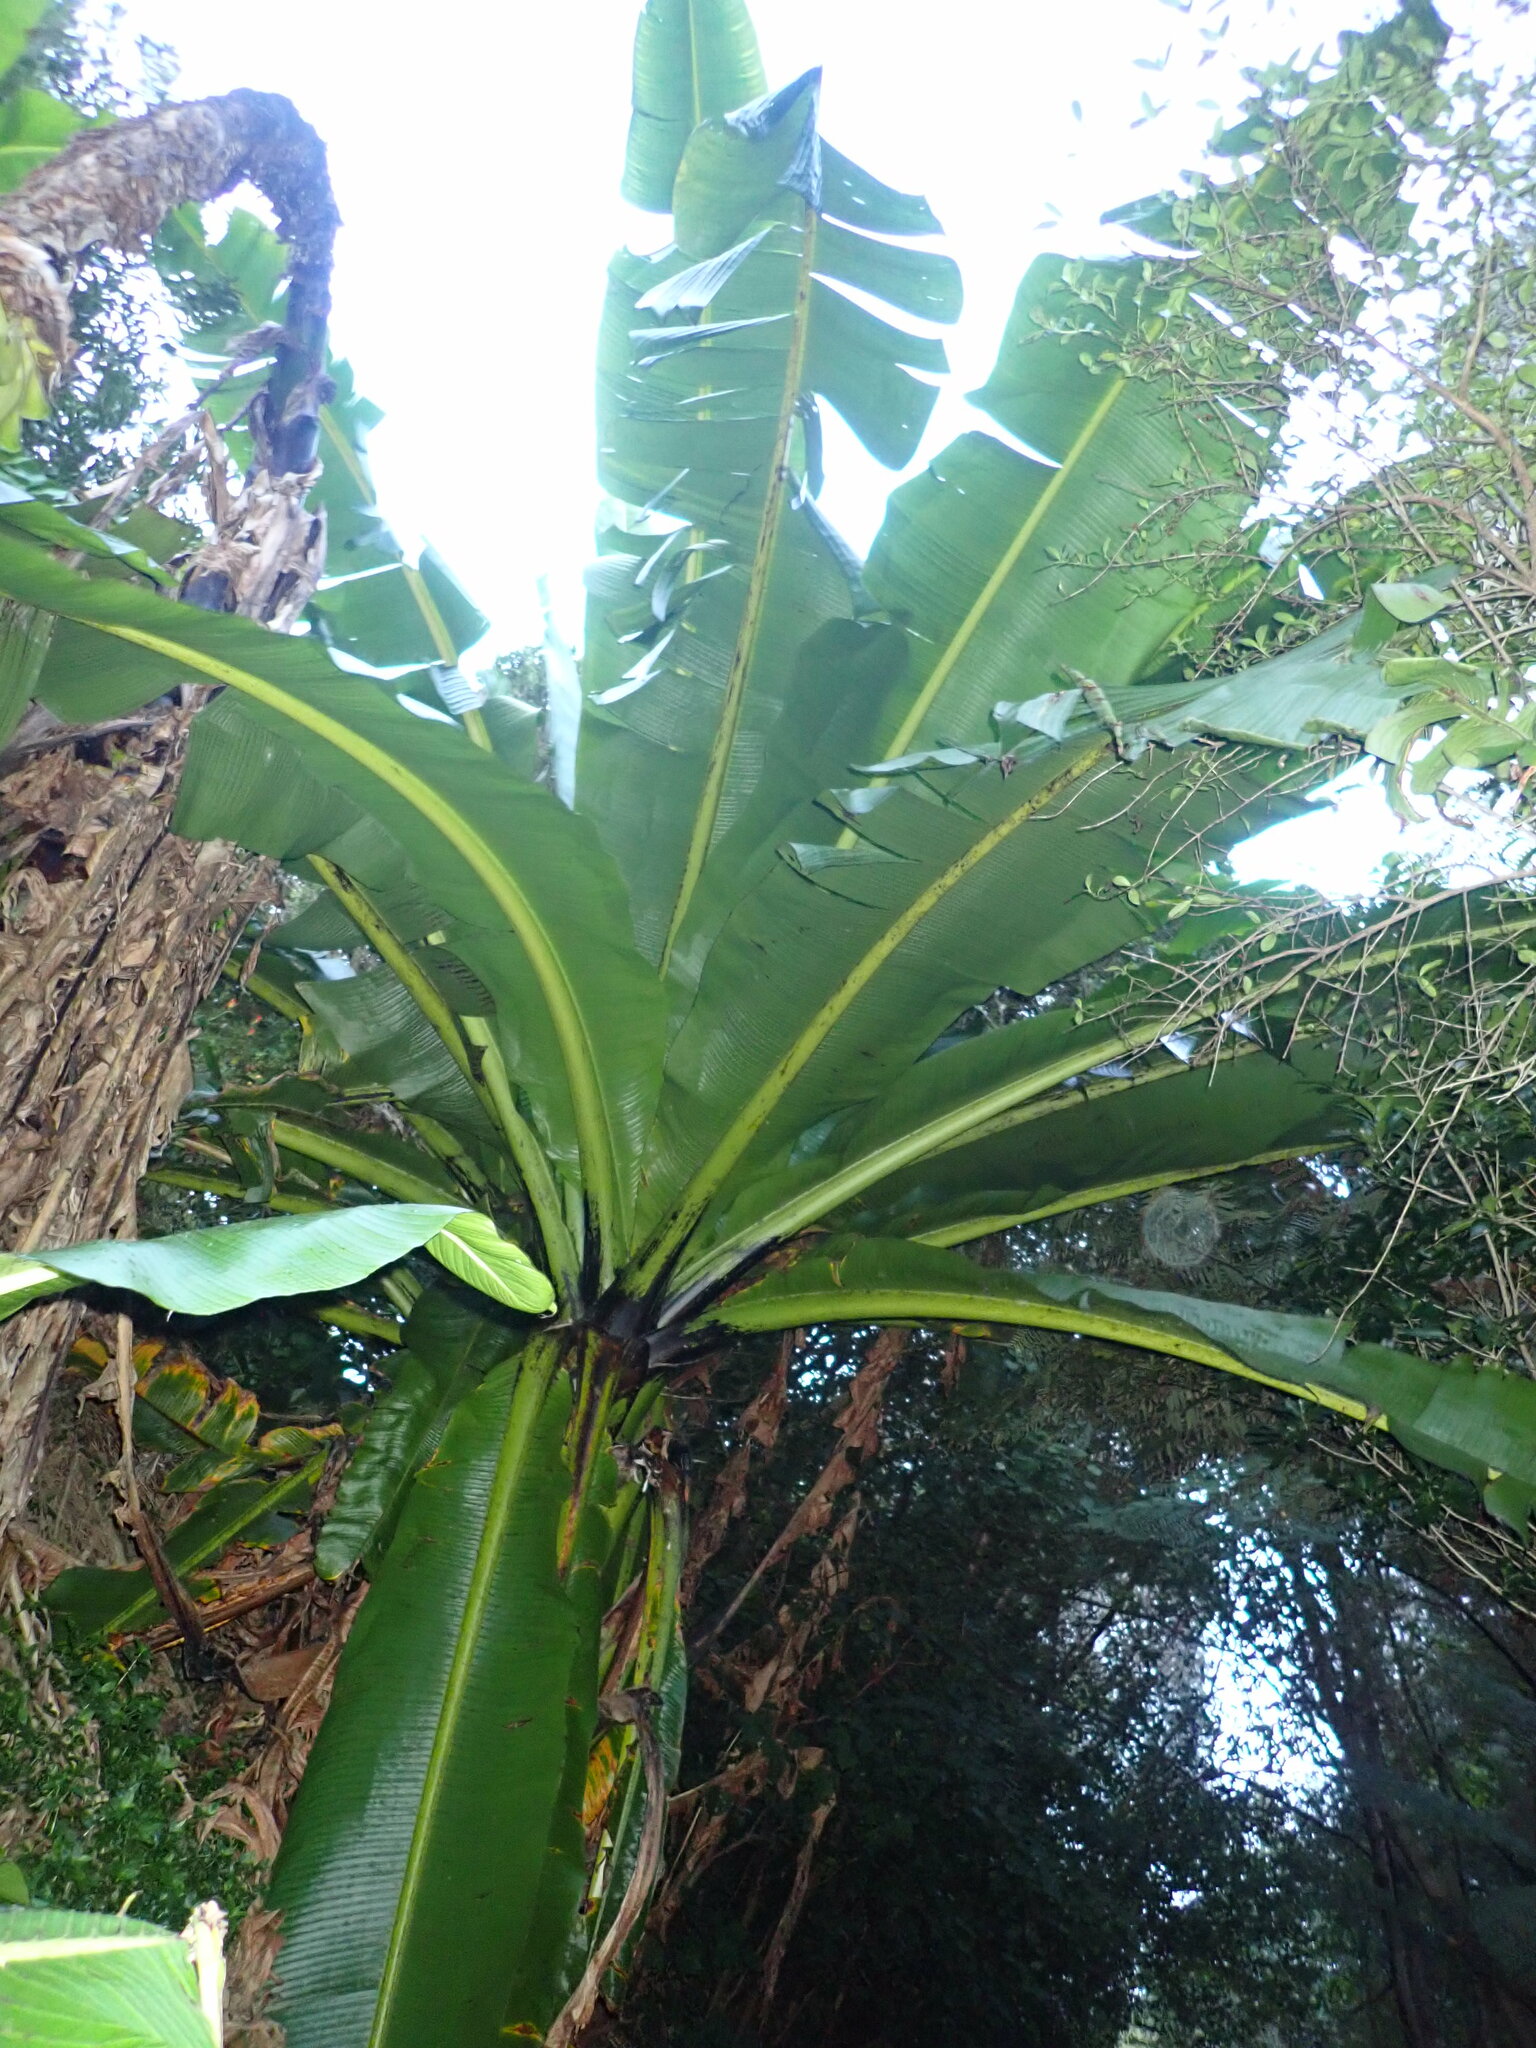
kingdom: Plantae
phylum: Tracheophyta
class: Liliopsida
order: Zingiberales
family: Musaceae
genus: Ensete
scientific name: Ensete ventricosum
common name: Abyssinian banana
